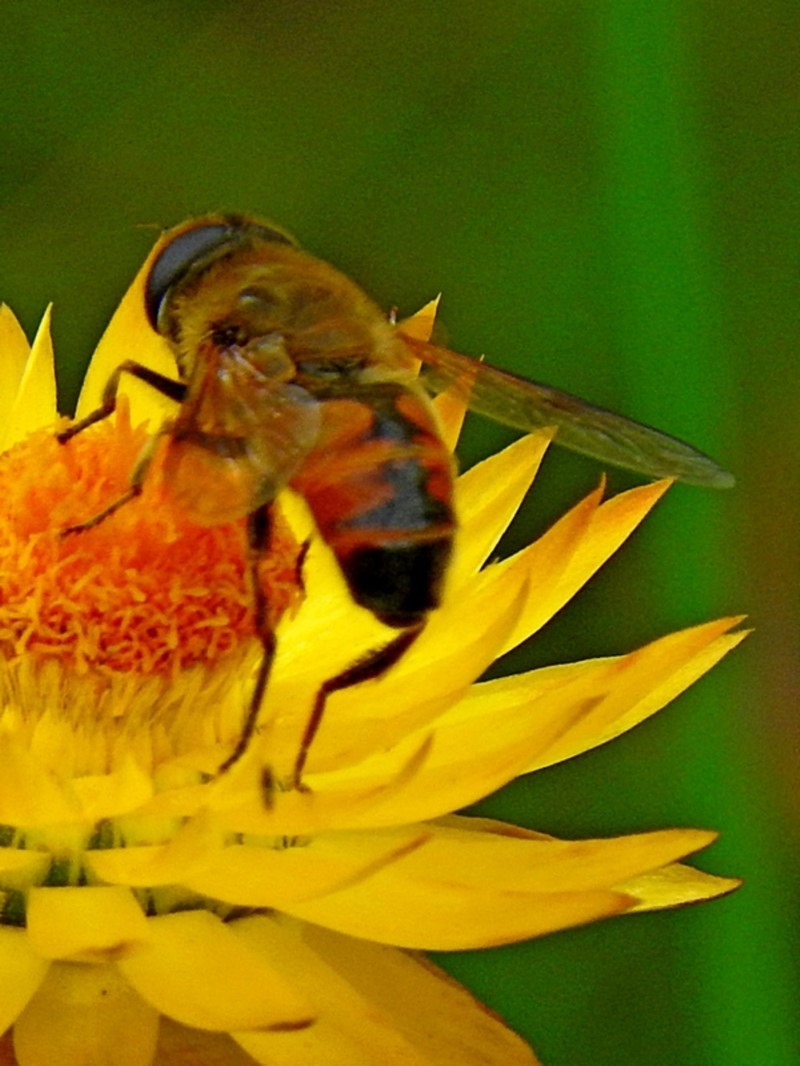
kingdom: Animalia
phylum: Arthropoda
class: Insecta
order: Diptera
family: Syrphidae
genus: Eristalis
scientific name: Eristalis tenax
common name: Drone fly
